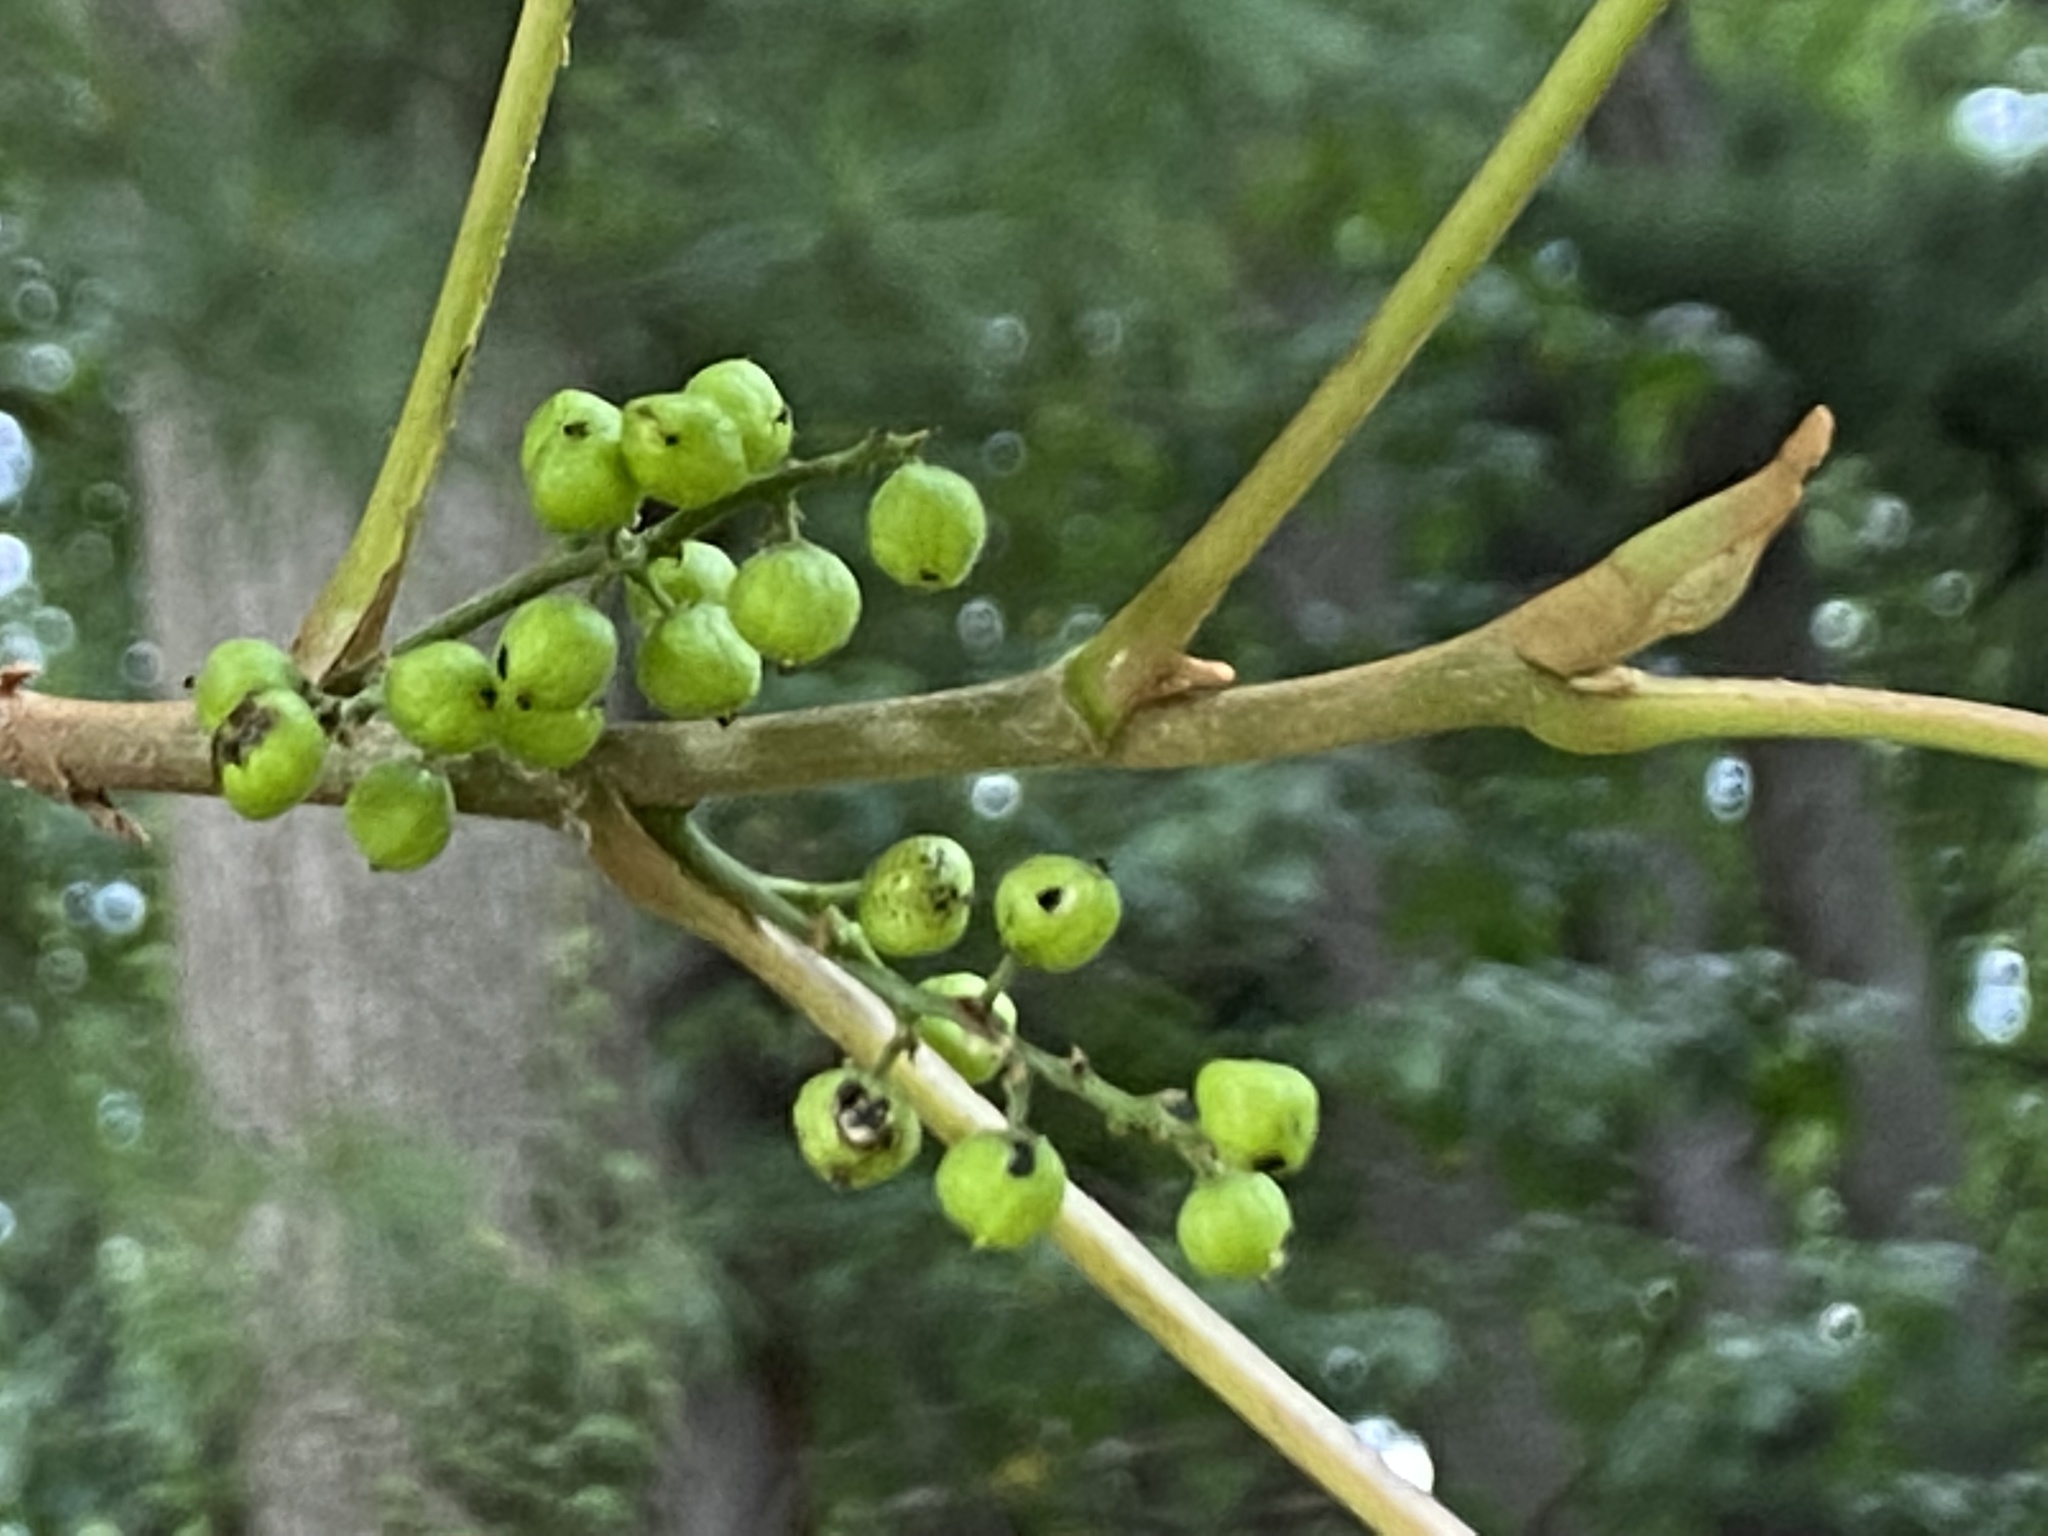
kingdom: Plantae
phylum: Tracheophyta
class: Magnoliopsida
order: Sapindales
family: Anacardiaceae
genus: Toxicodendron
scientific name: Toxicodendron radicans
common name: Poison ivy
